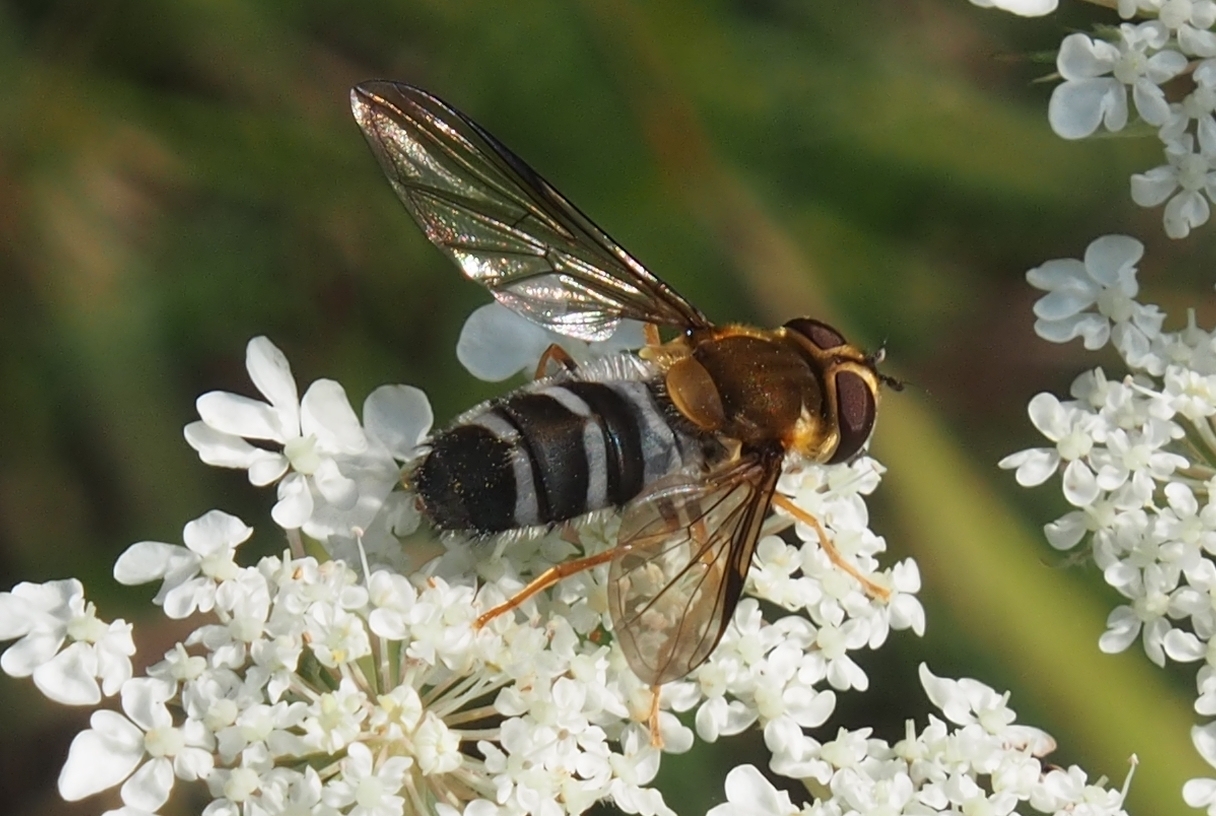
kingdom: Animalia
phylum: Arthropoda
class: Insecta
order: Diptera
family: Syrphidae
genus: Leucozona
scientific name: Leucozona glaucia
